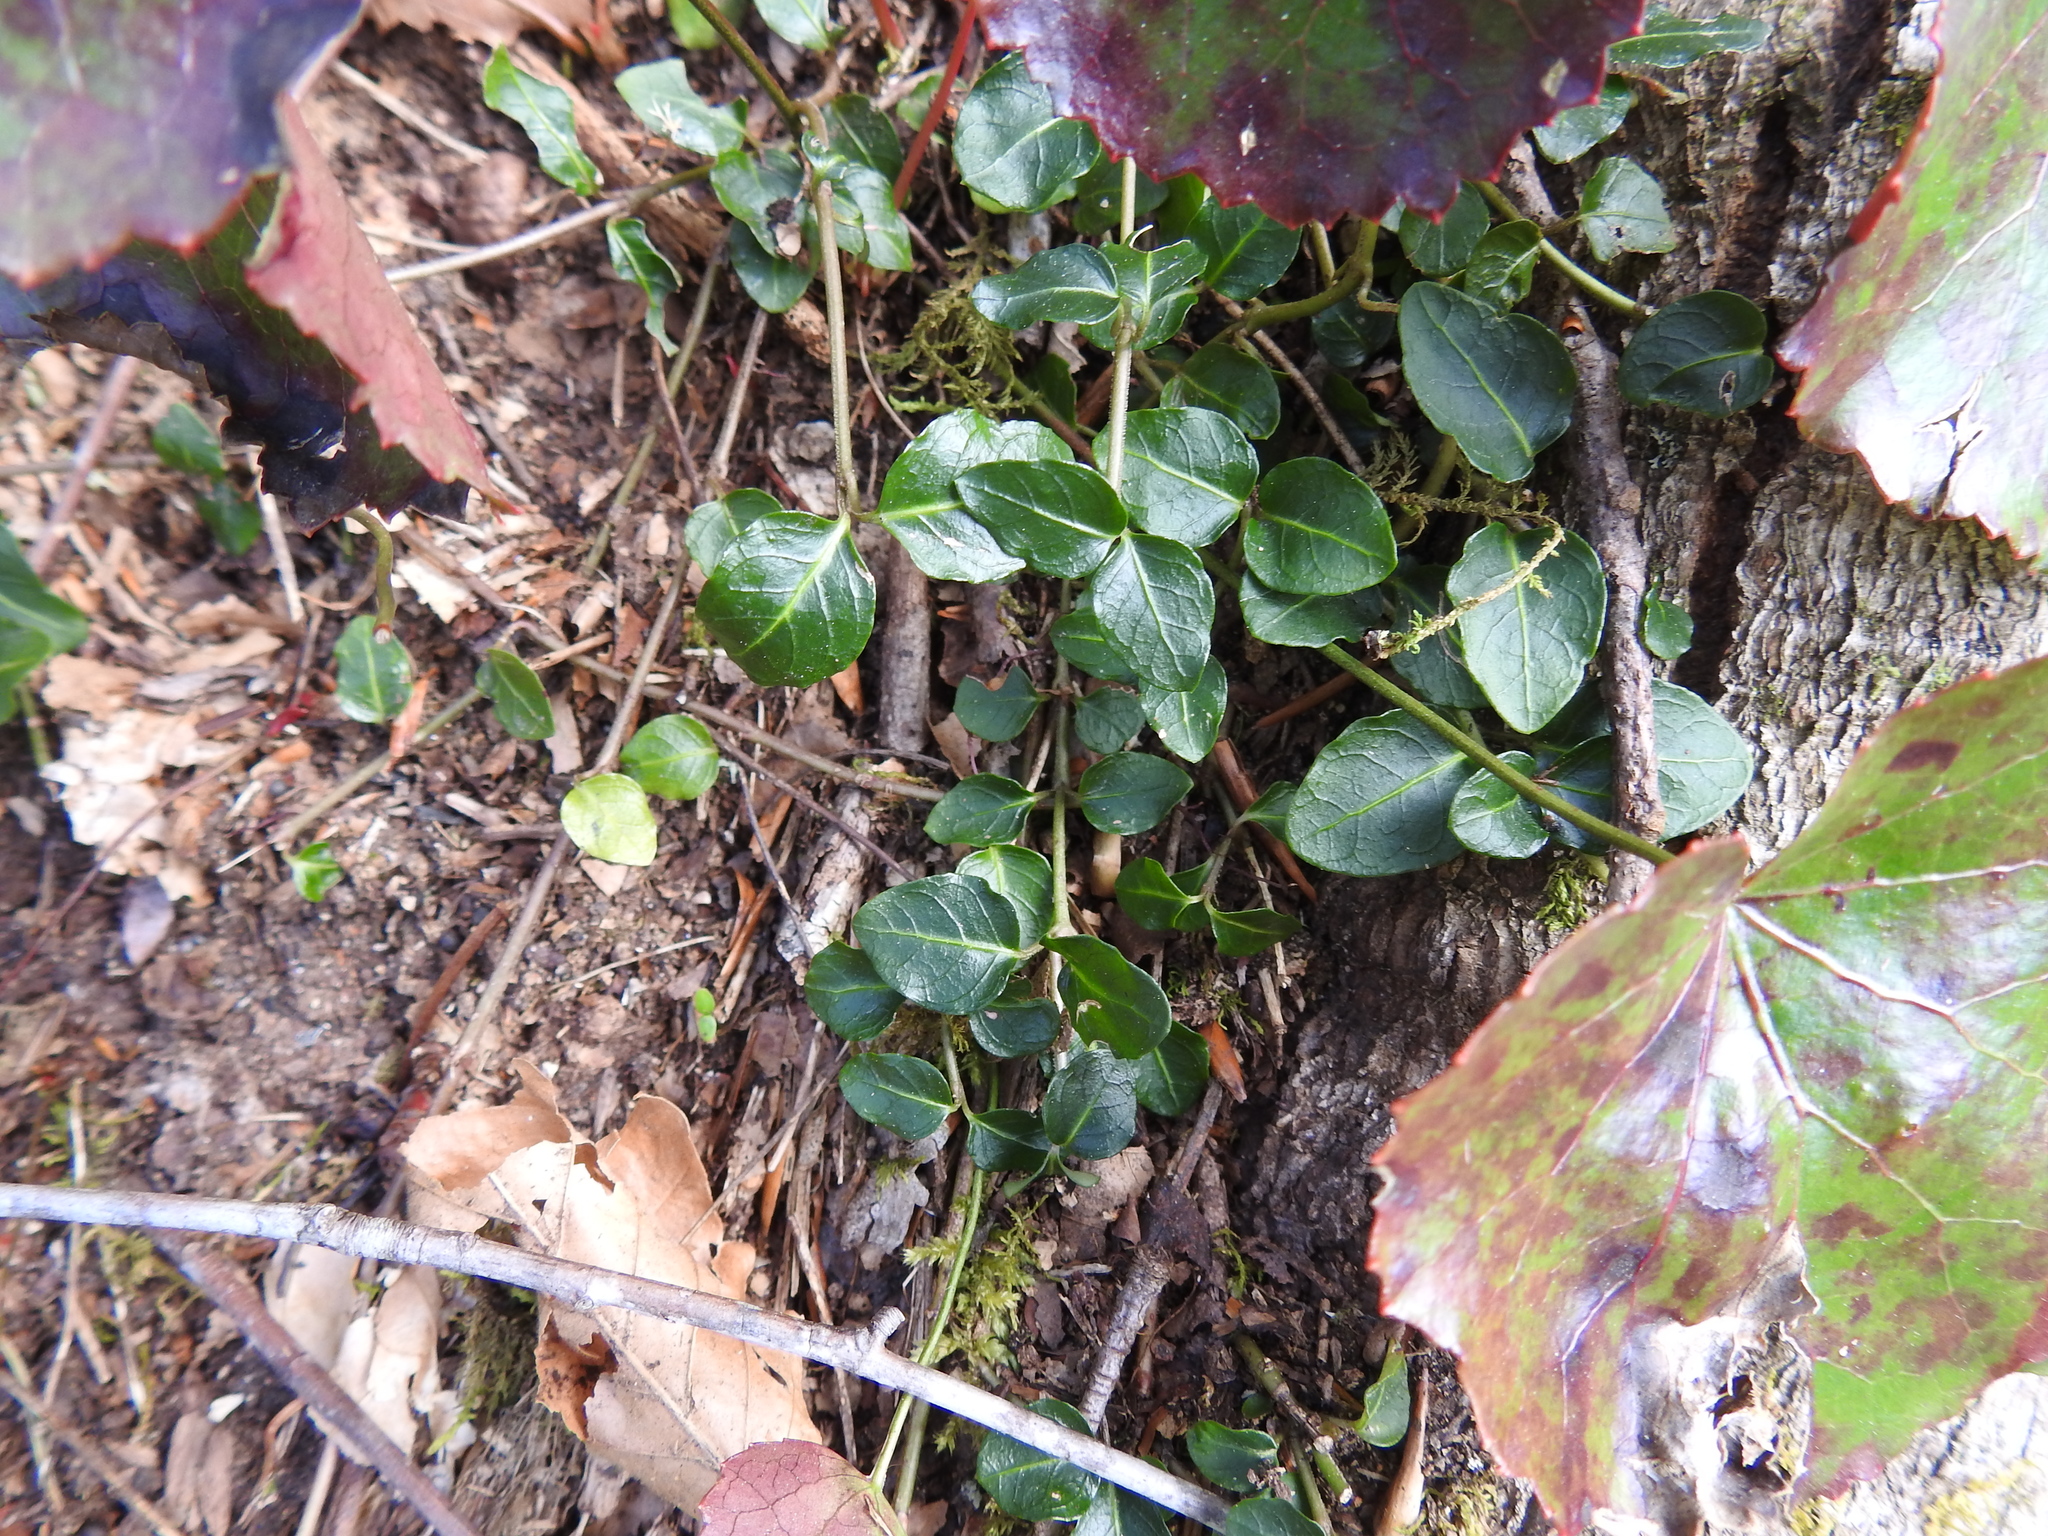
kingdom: Plantae
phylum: Tracheophyta
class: Magnoliopsida
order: Gentianales
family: Rubiaceae
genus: Mitchella
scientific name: Mitchella repens
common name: Partridge-berry
